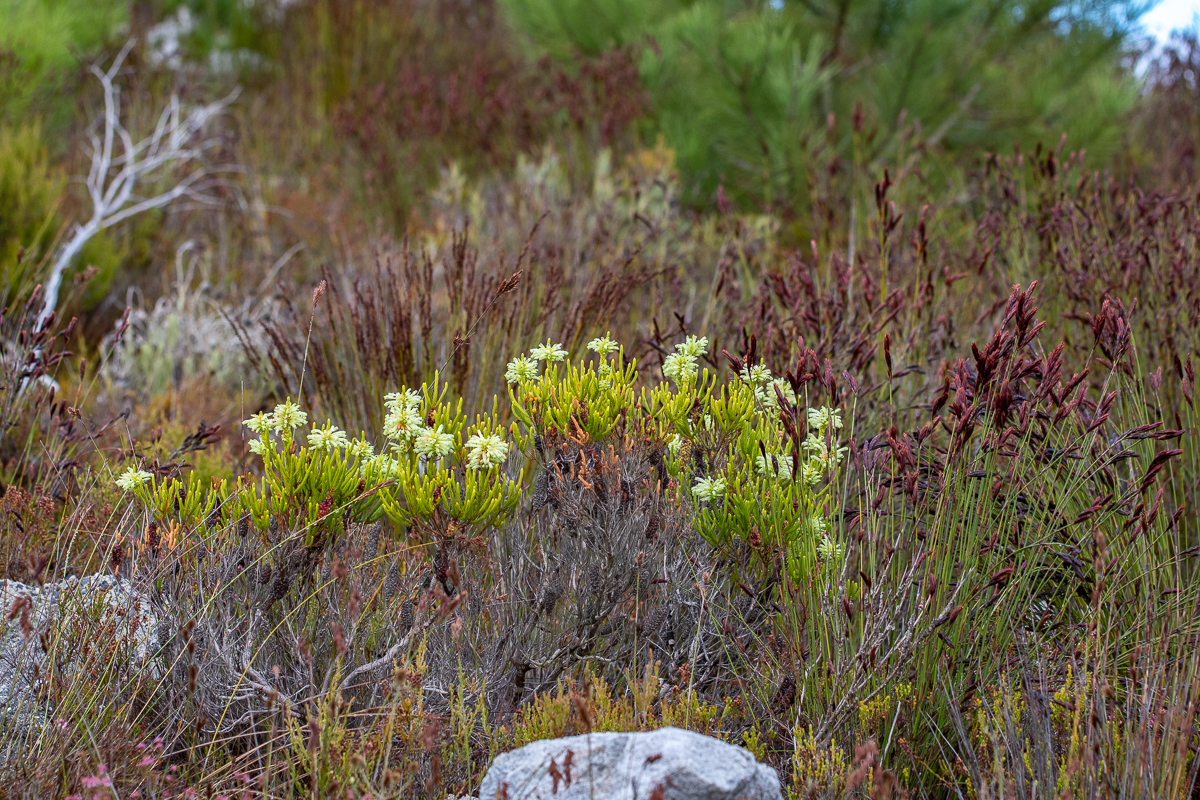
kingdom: Plantae
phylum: Tracheophyta
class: Magnoliopsida
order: Ericales
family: Ericaceae
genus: Erica
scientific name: Erica sessiliflora
